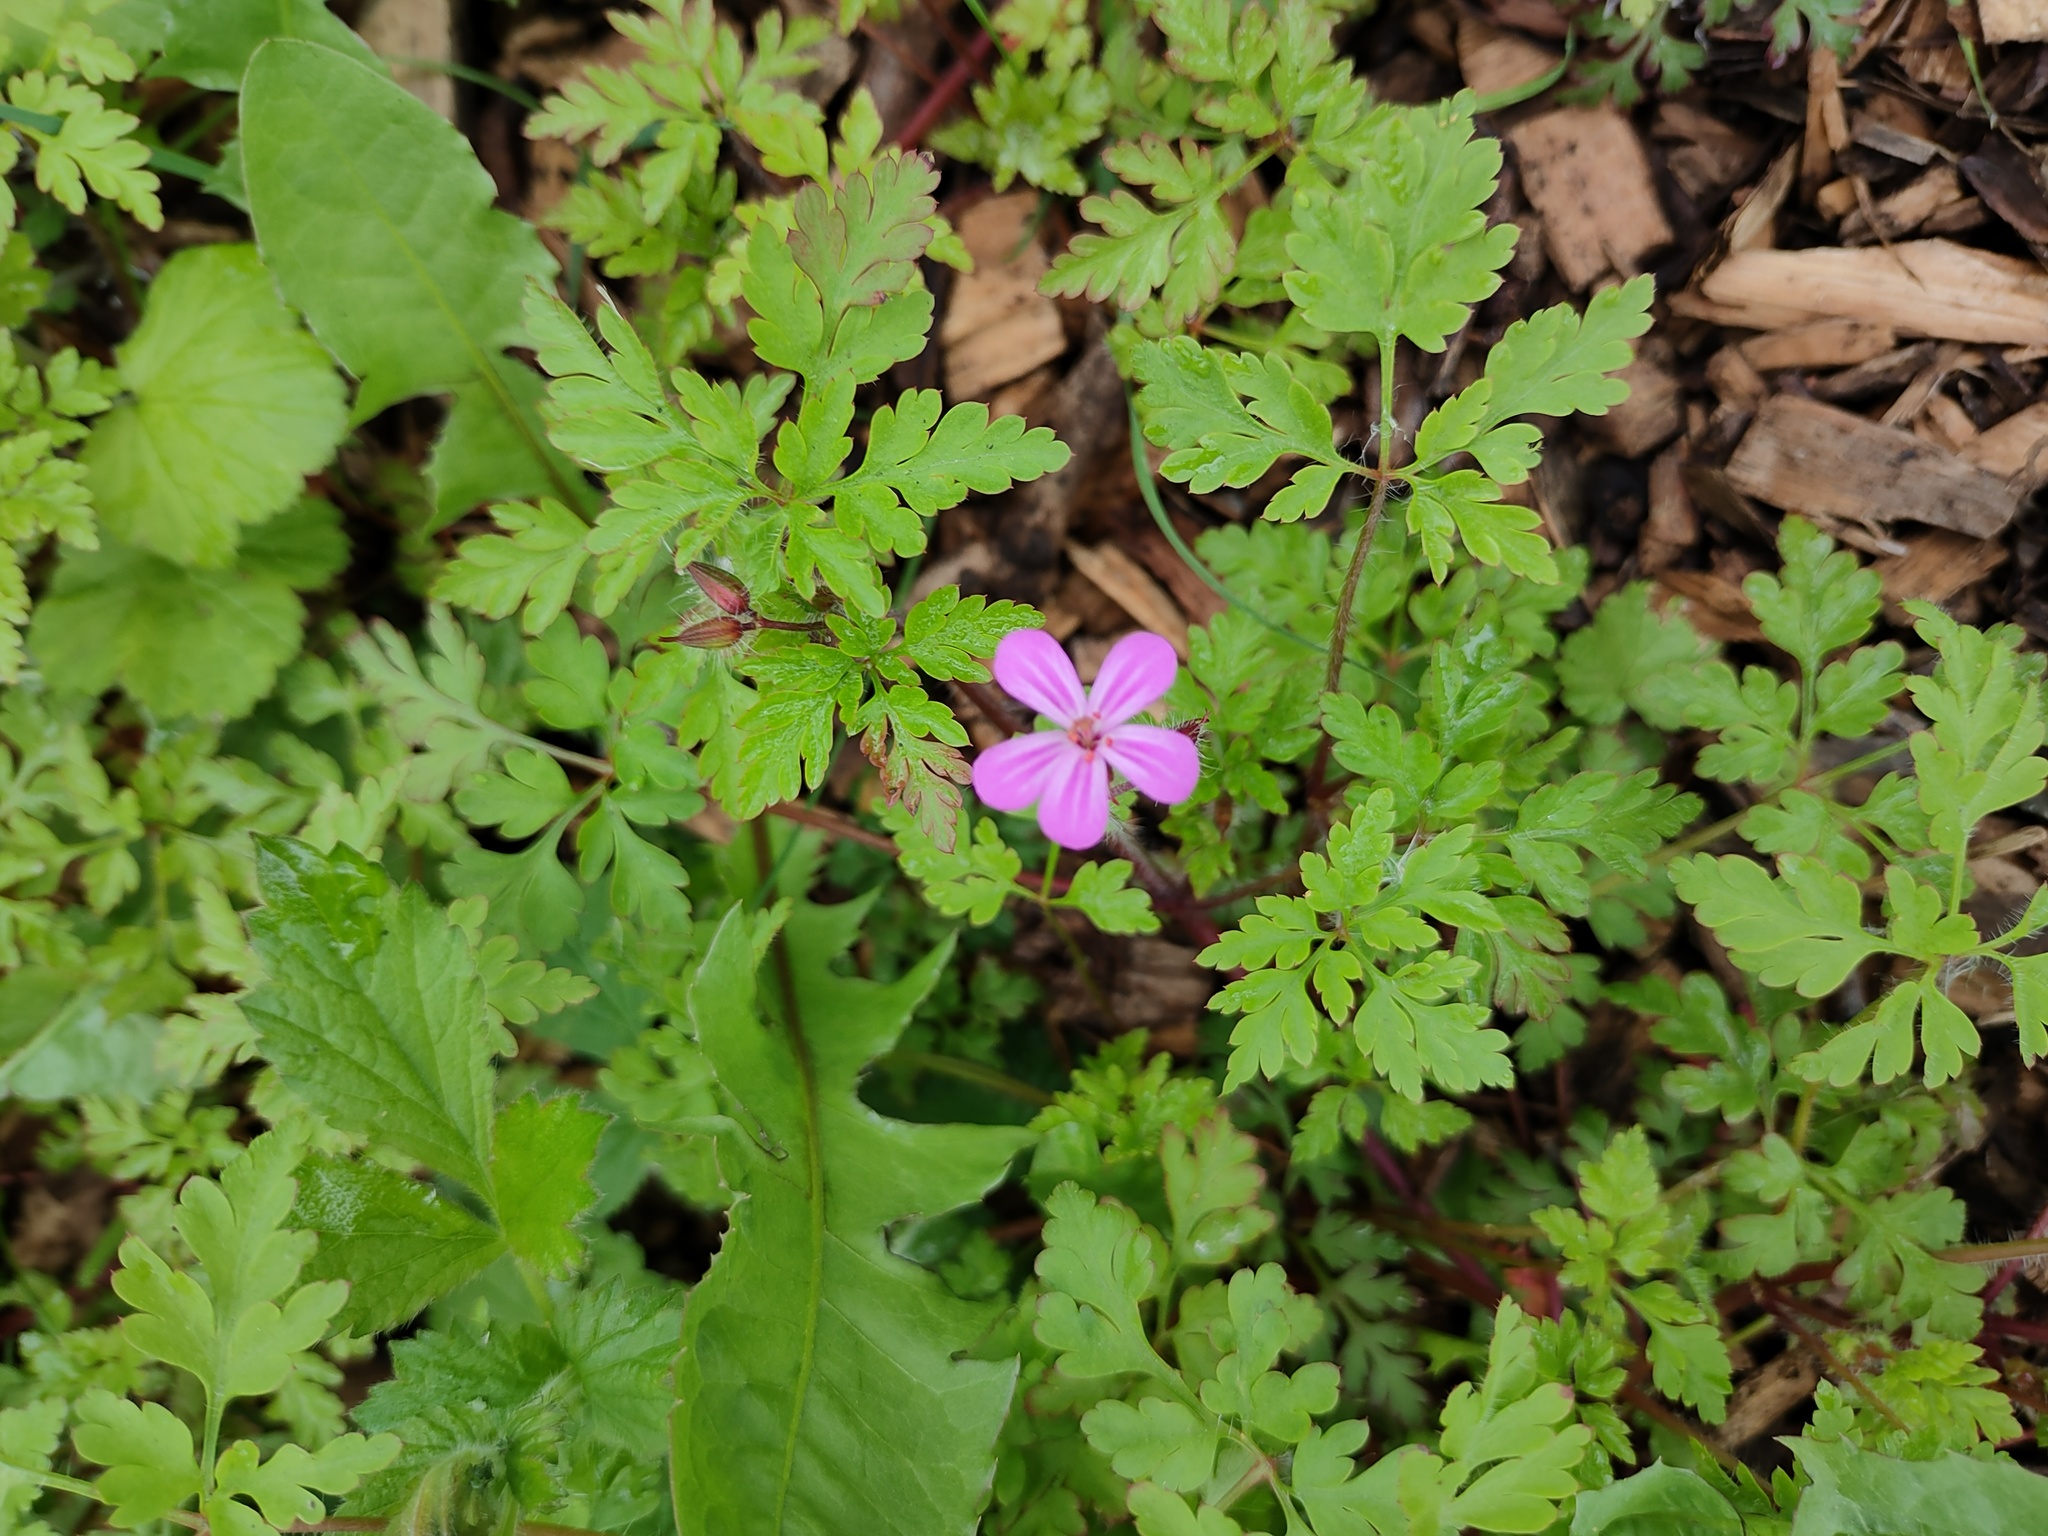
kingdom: Plantae
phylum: Tracheophyta
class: Magnoliopsida
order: Geraniales
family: Geraniaceae
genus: Geranium
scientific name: Geranium robertianum
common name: Herb-robert
